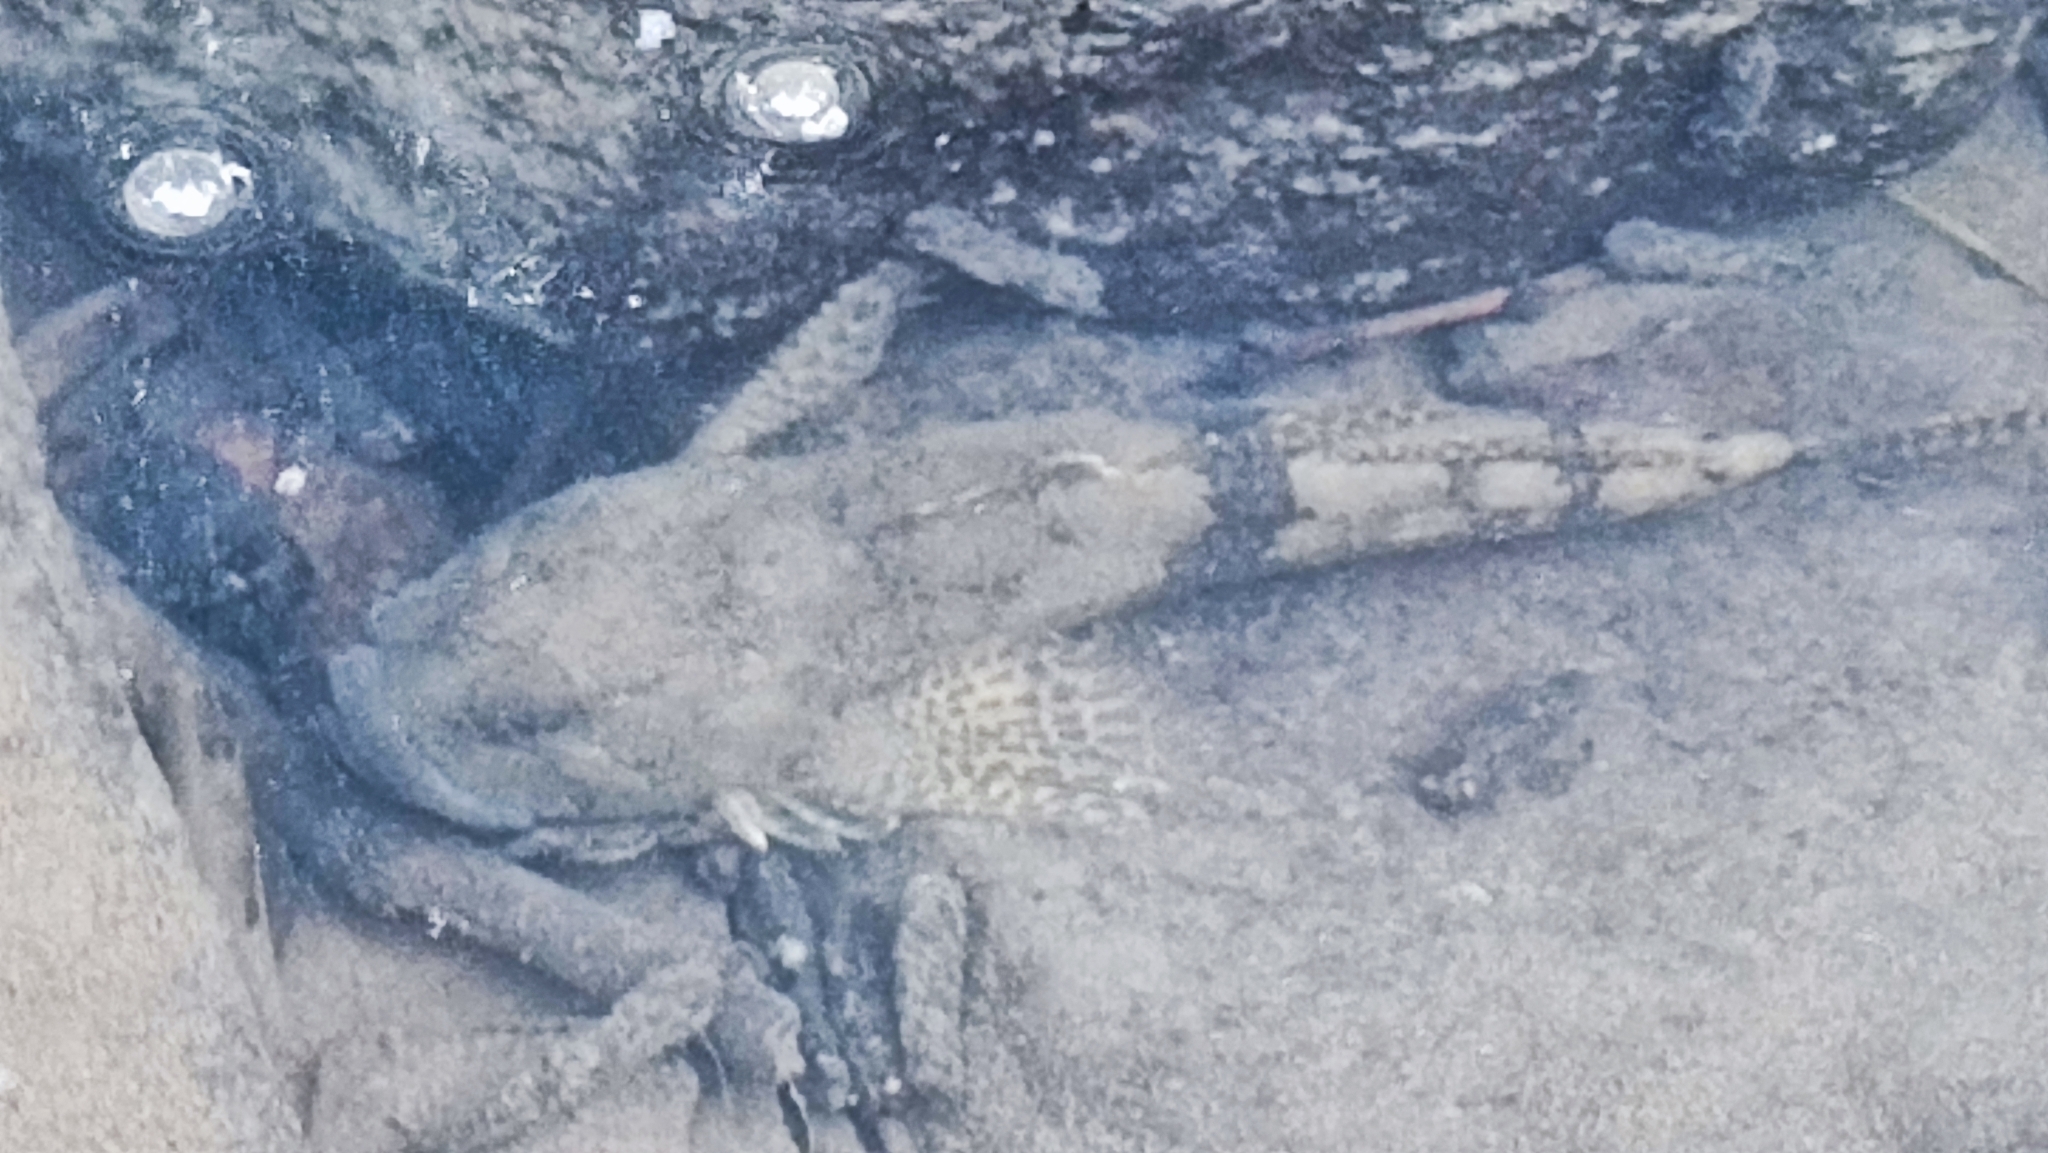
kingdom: Animalia
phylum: Chordata
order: Scorpaeniformes
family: Cottidae
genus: Cottus
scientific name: Cottus gobio
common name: Bullhead
